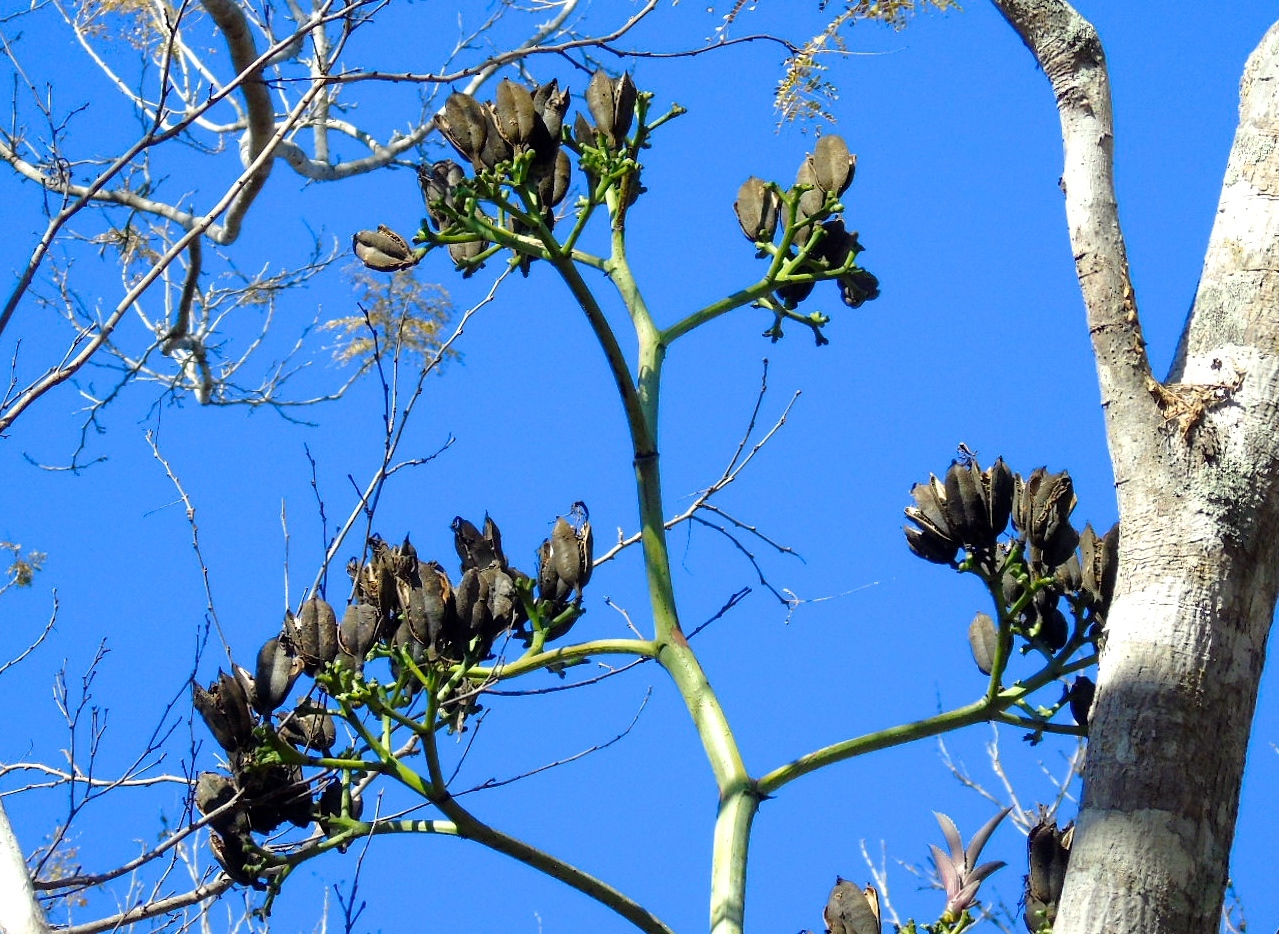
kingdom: Plantae
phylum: Tracheophyta
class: Liliopsida
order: Asparagales
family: Asparagaceae
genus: Agave
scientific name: Agave vivipara
